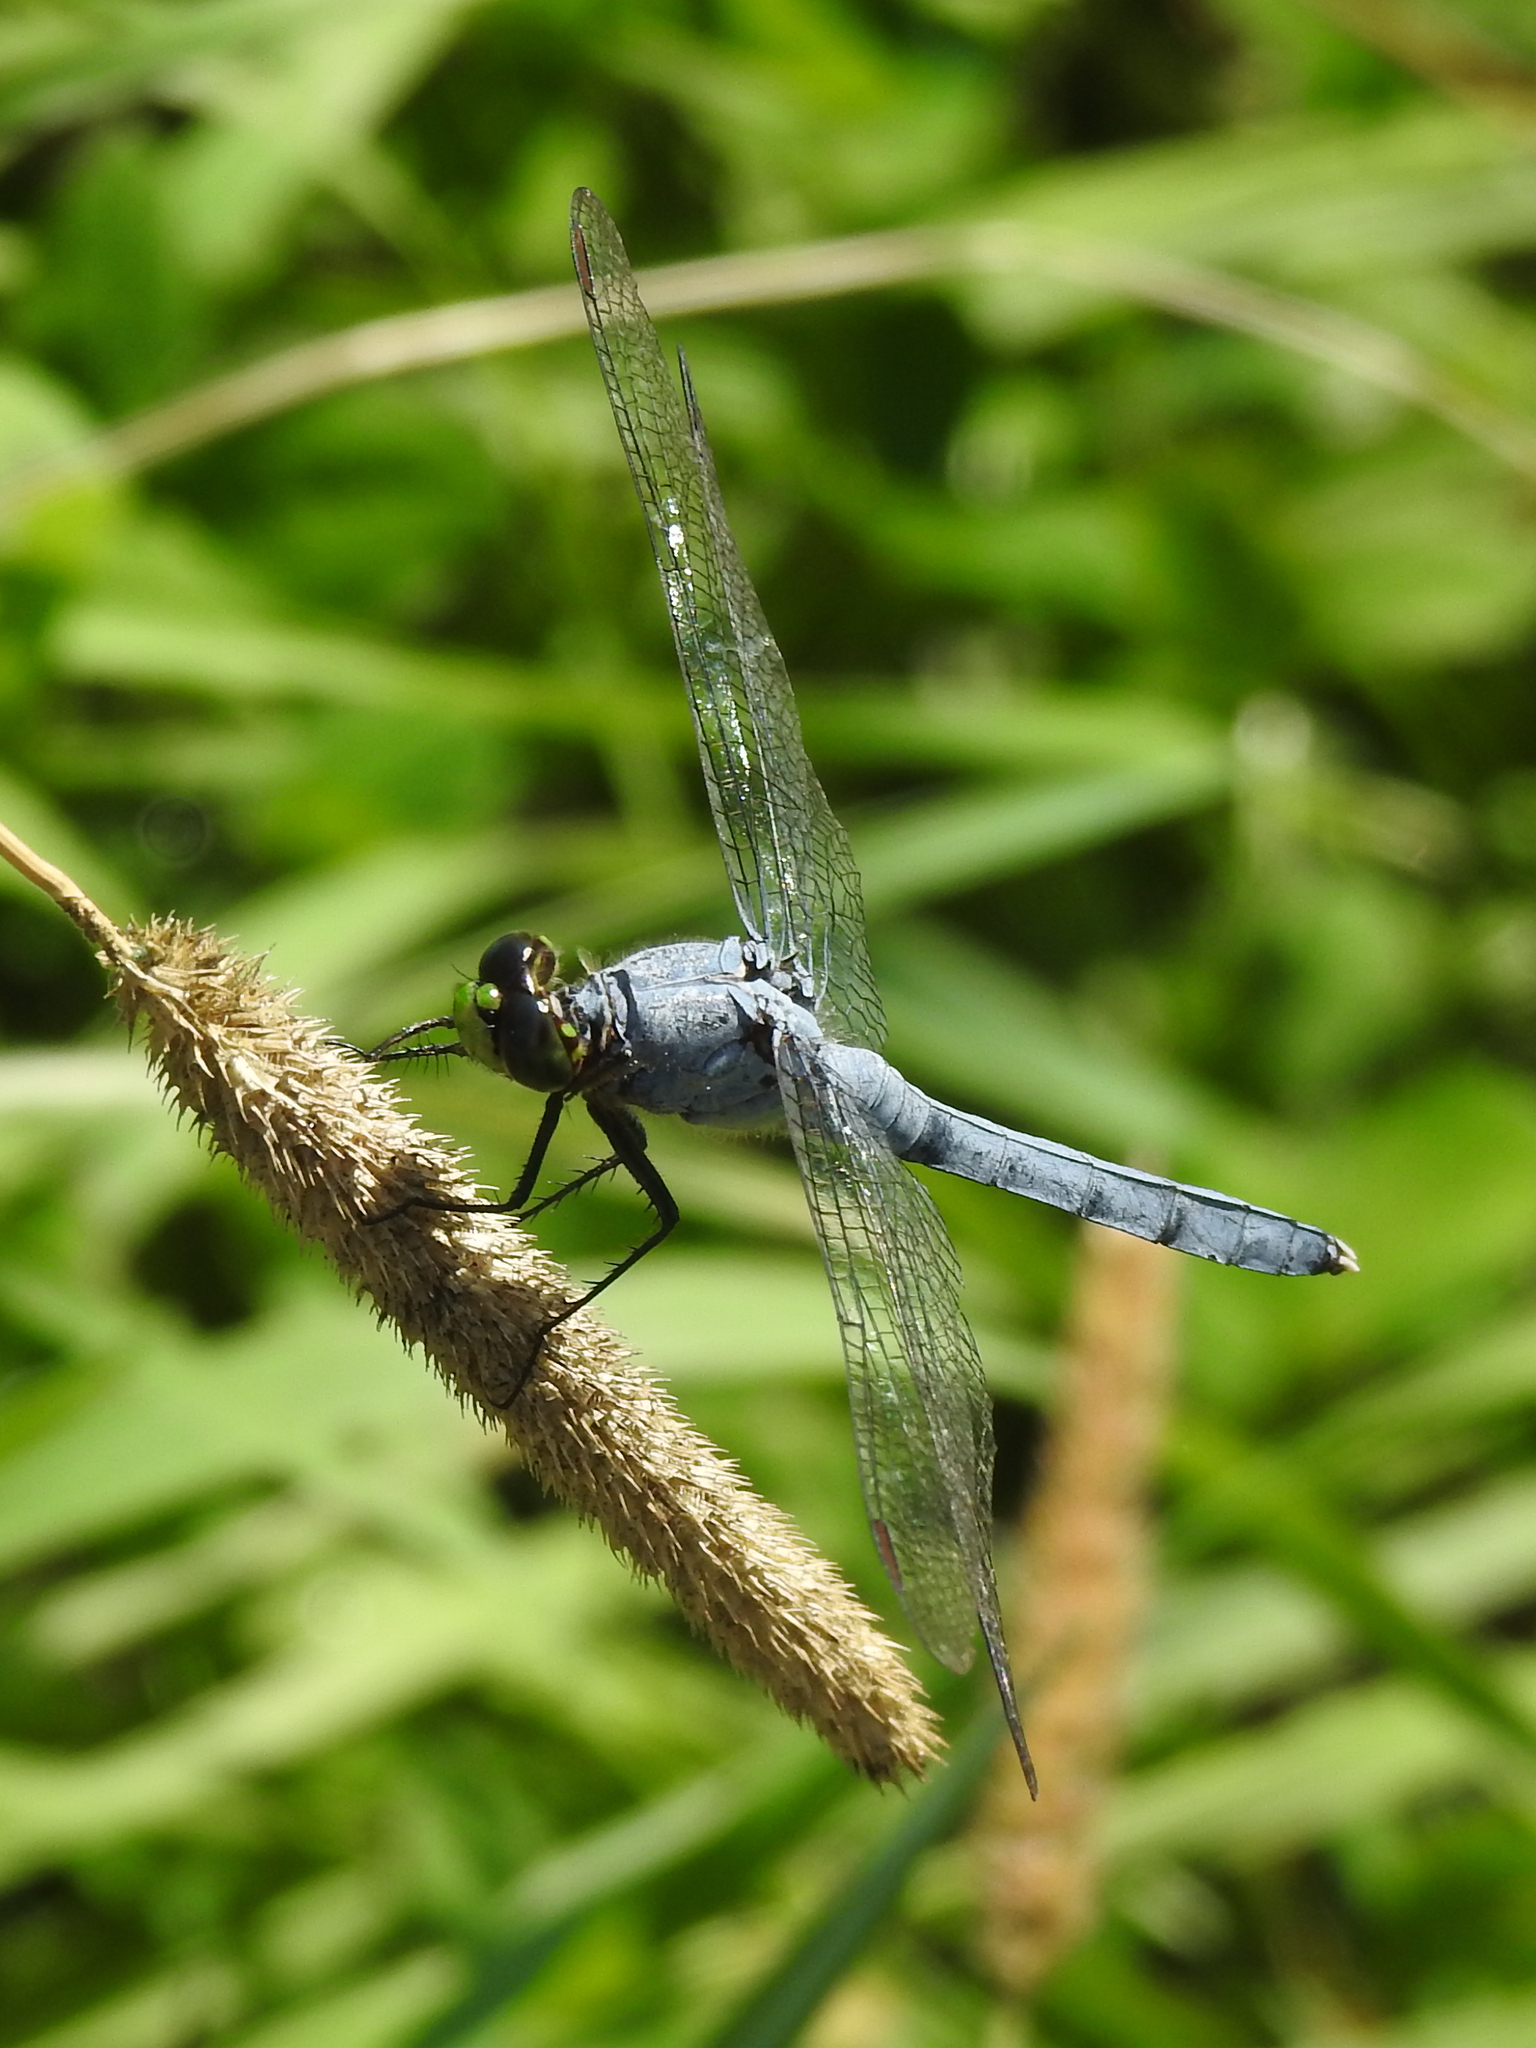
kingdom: Animalia
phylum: Arthropoda
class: Insecta
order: Odonata
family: Libellulidae
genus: Erythemis
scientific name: Erythemis simplicicollis
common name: Eastern pondhawk
